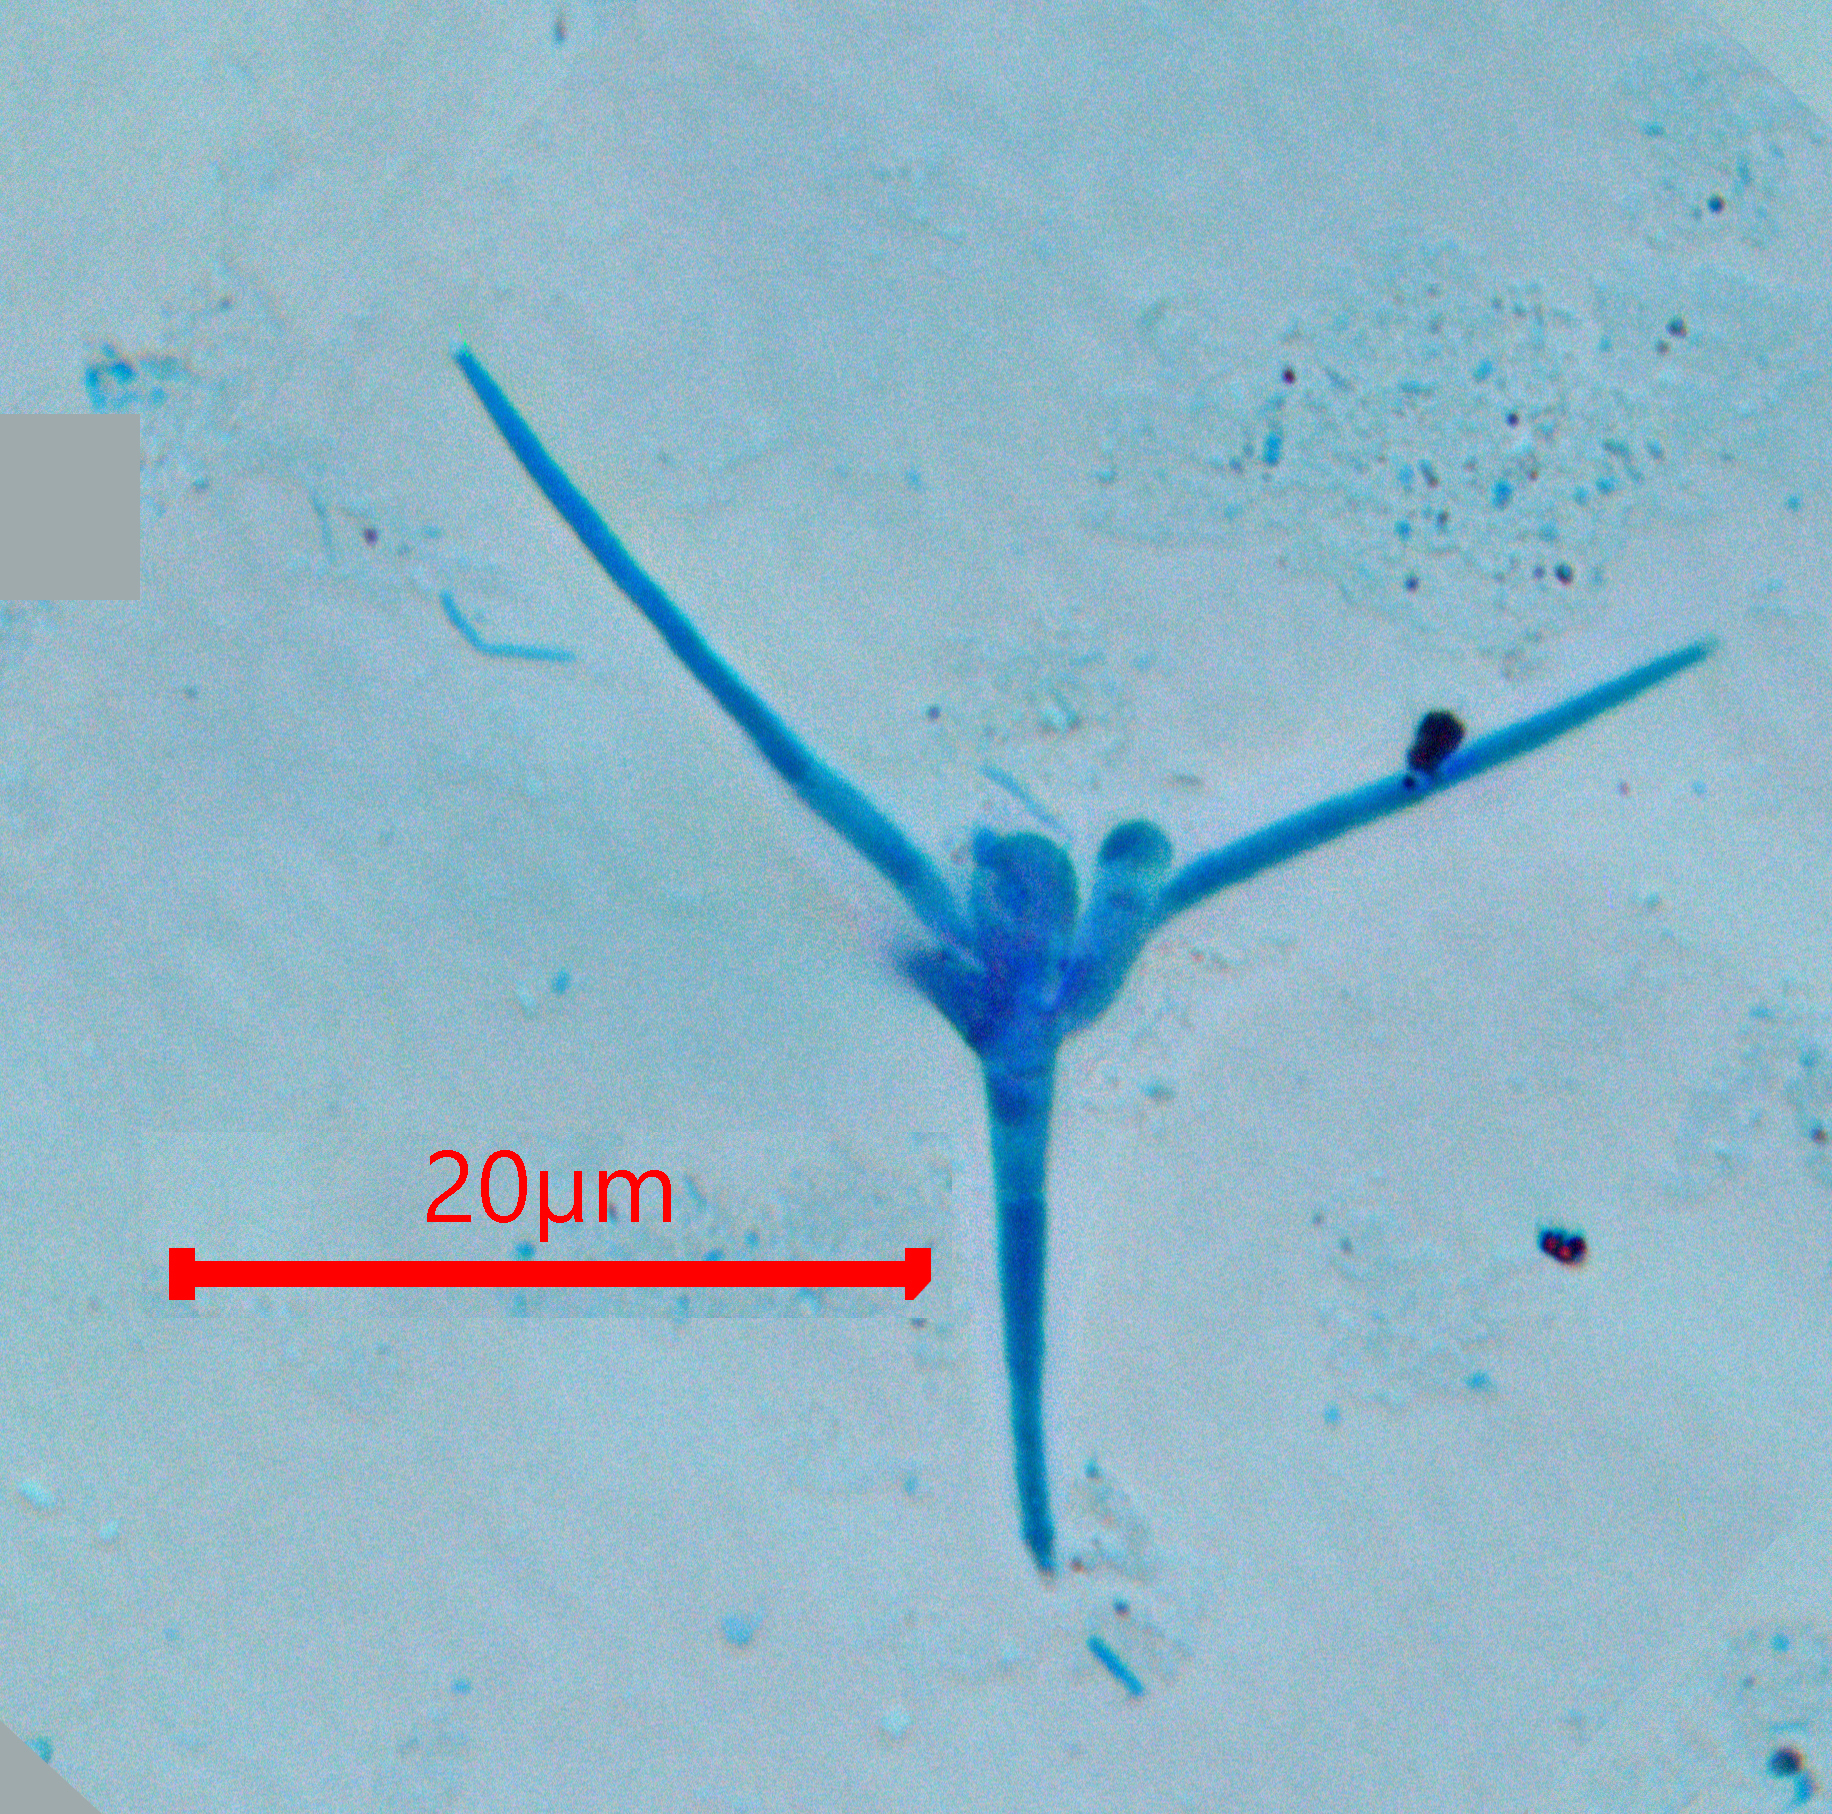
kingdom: Fungi
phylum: Ascomycota
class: Leotiomycetes
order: Helotiales
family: Helotiaceae
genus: Tetracladium
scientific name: Tetracladium marchalianum
